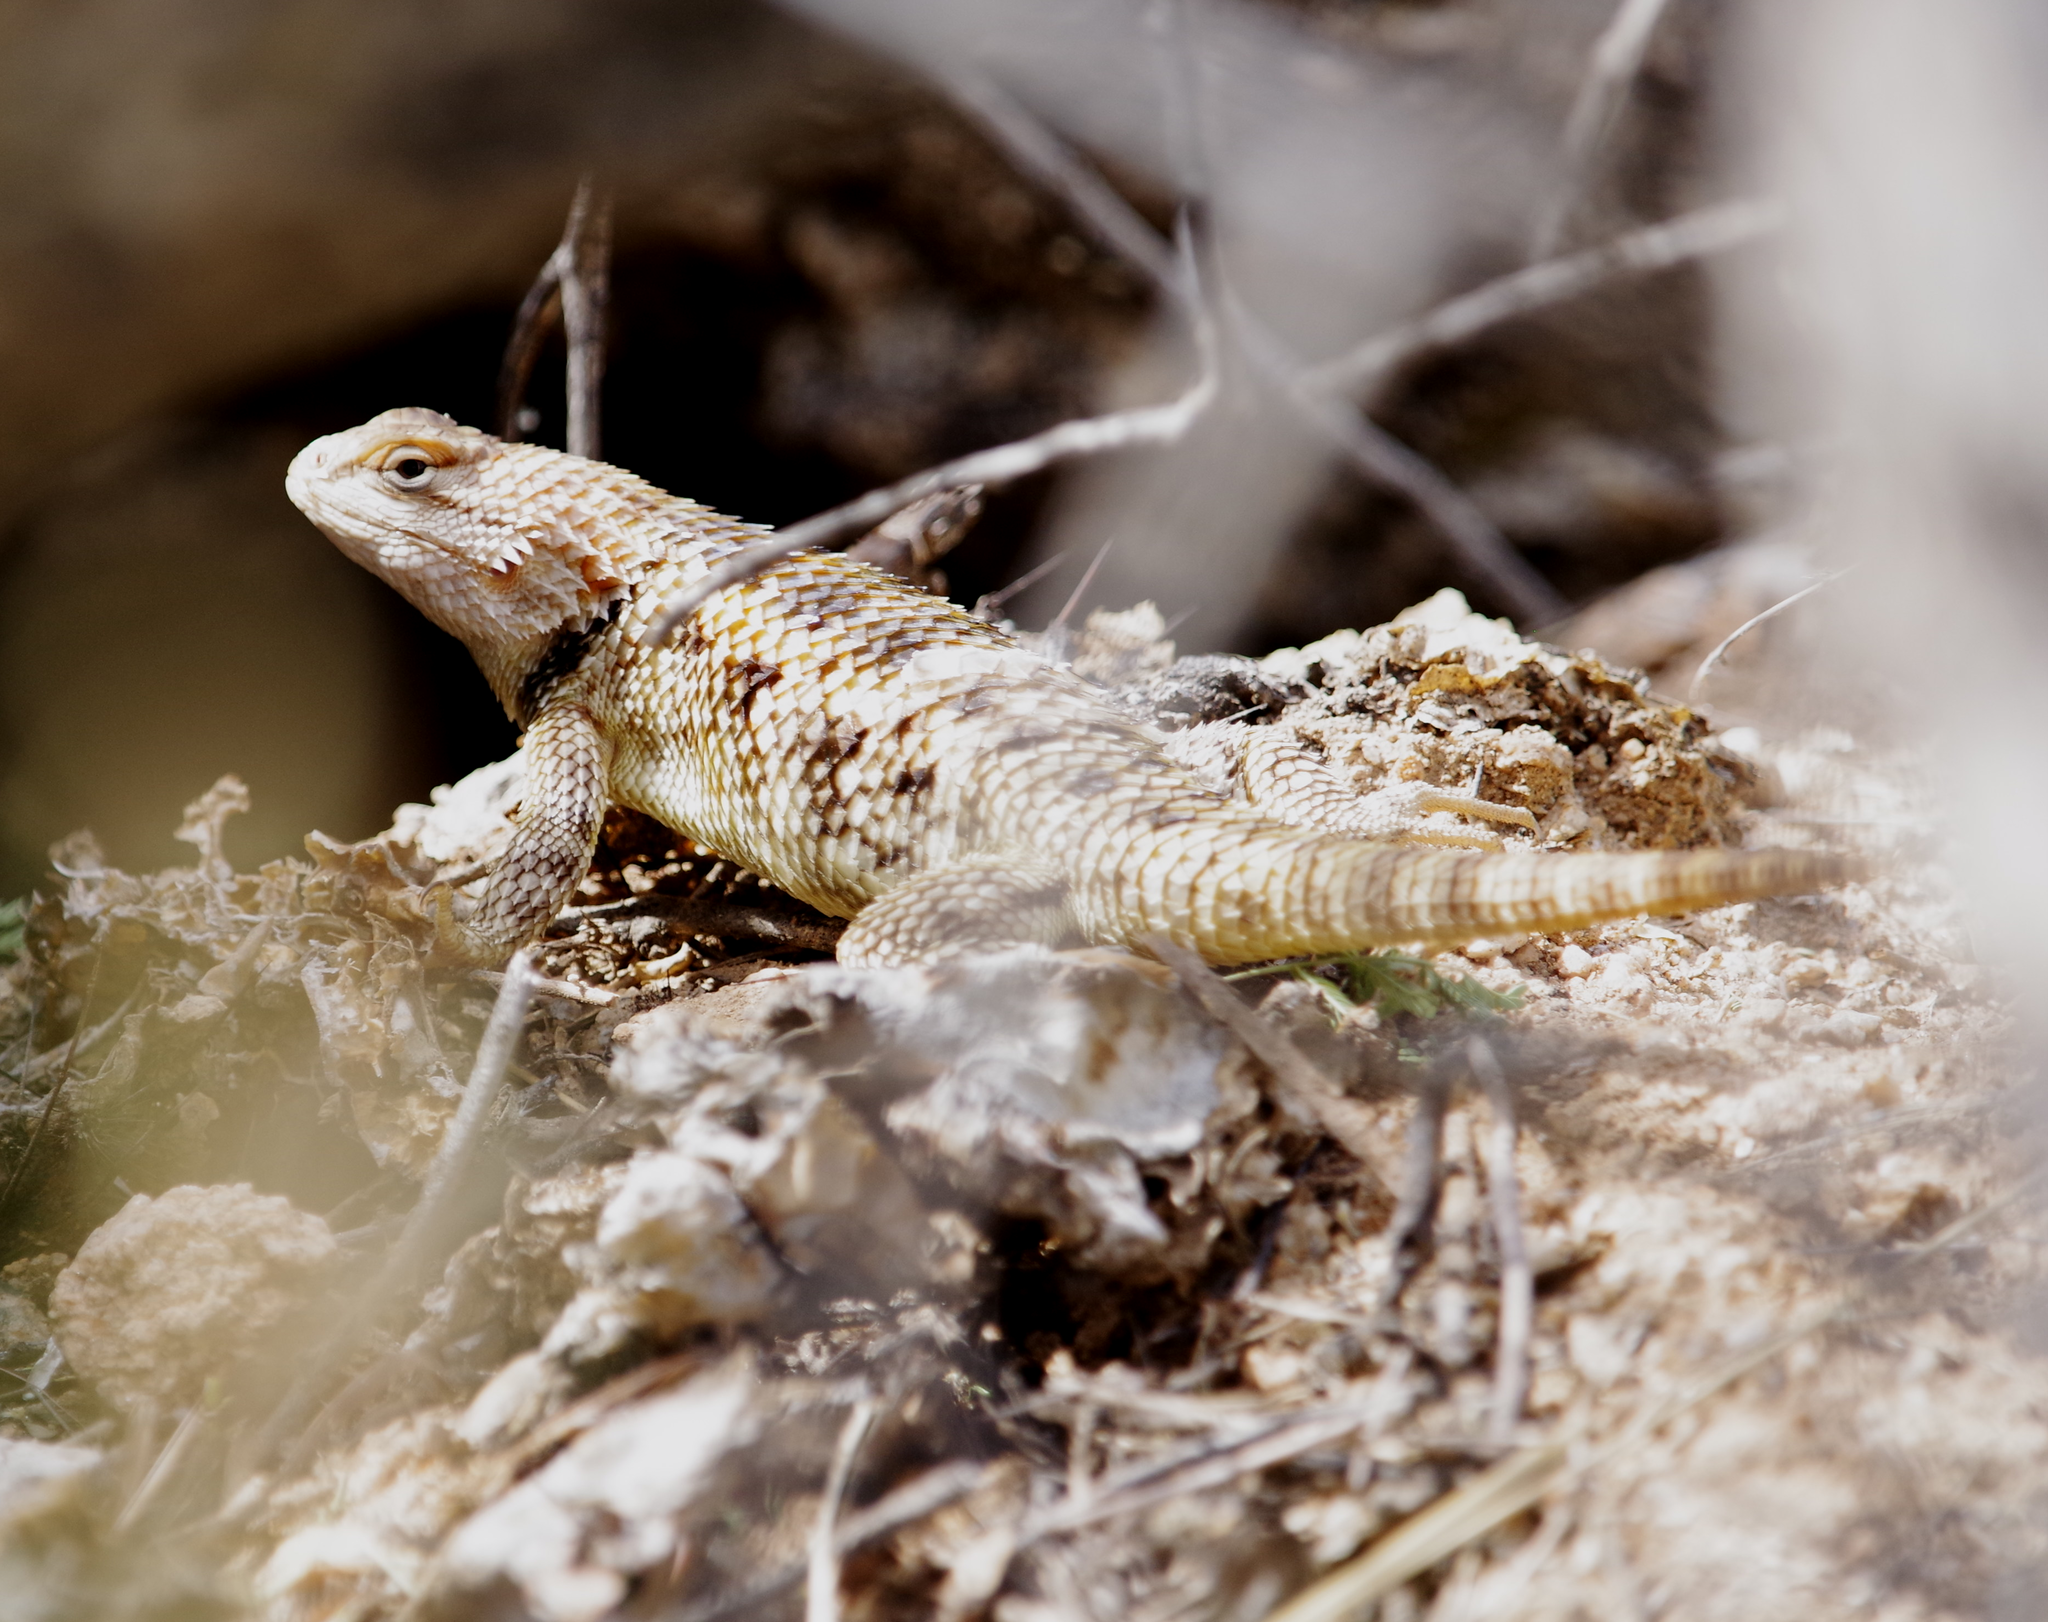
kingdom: Animalia
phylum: Chordata
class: Squamata
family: Phrynosomatidae
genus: Sceloporus
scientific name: Sceloporus magister
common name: Desert spiny lizard
